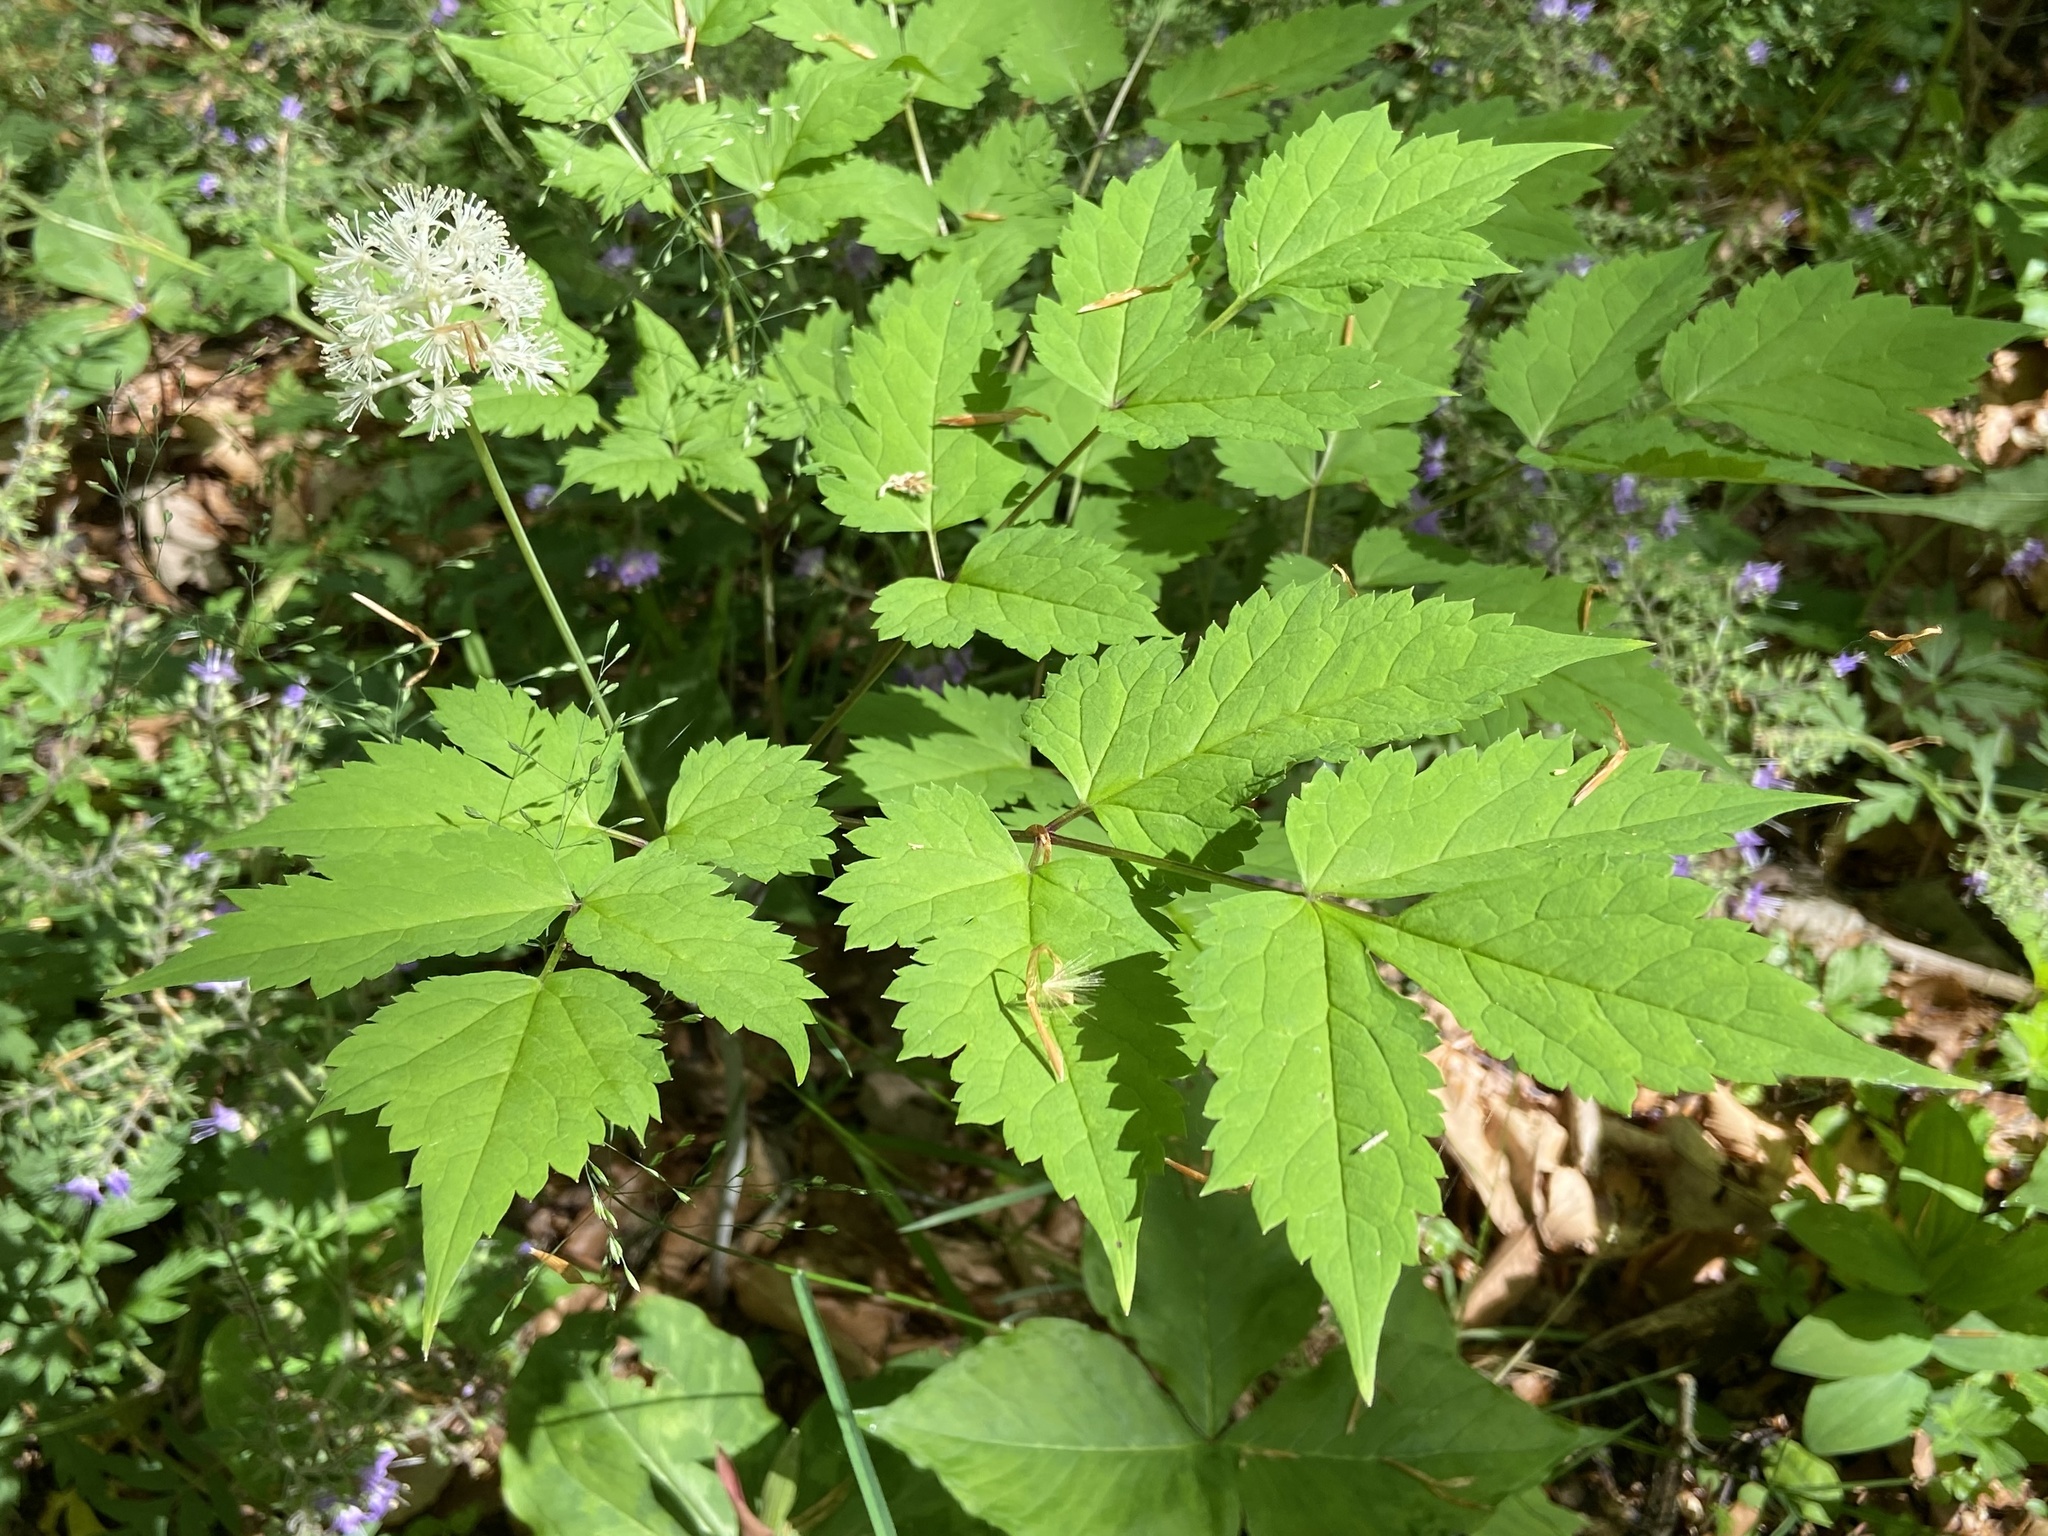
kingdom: Plantae
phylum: Tracheophyta
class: Magnoliopsida
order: Ranunculales
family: Ranunculaceae
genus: Actaea
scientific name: Actaea pachypoda
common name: Doll's-eyes
